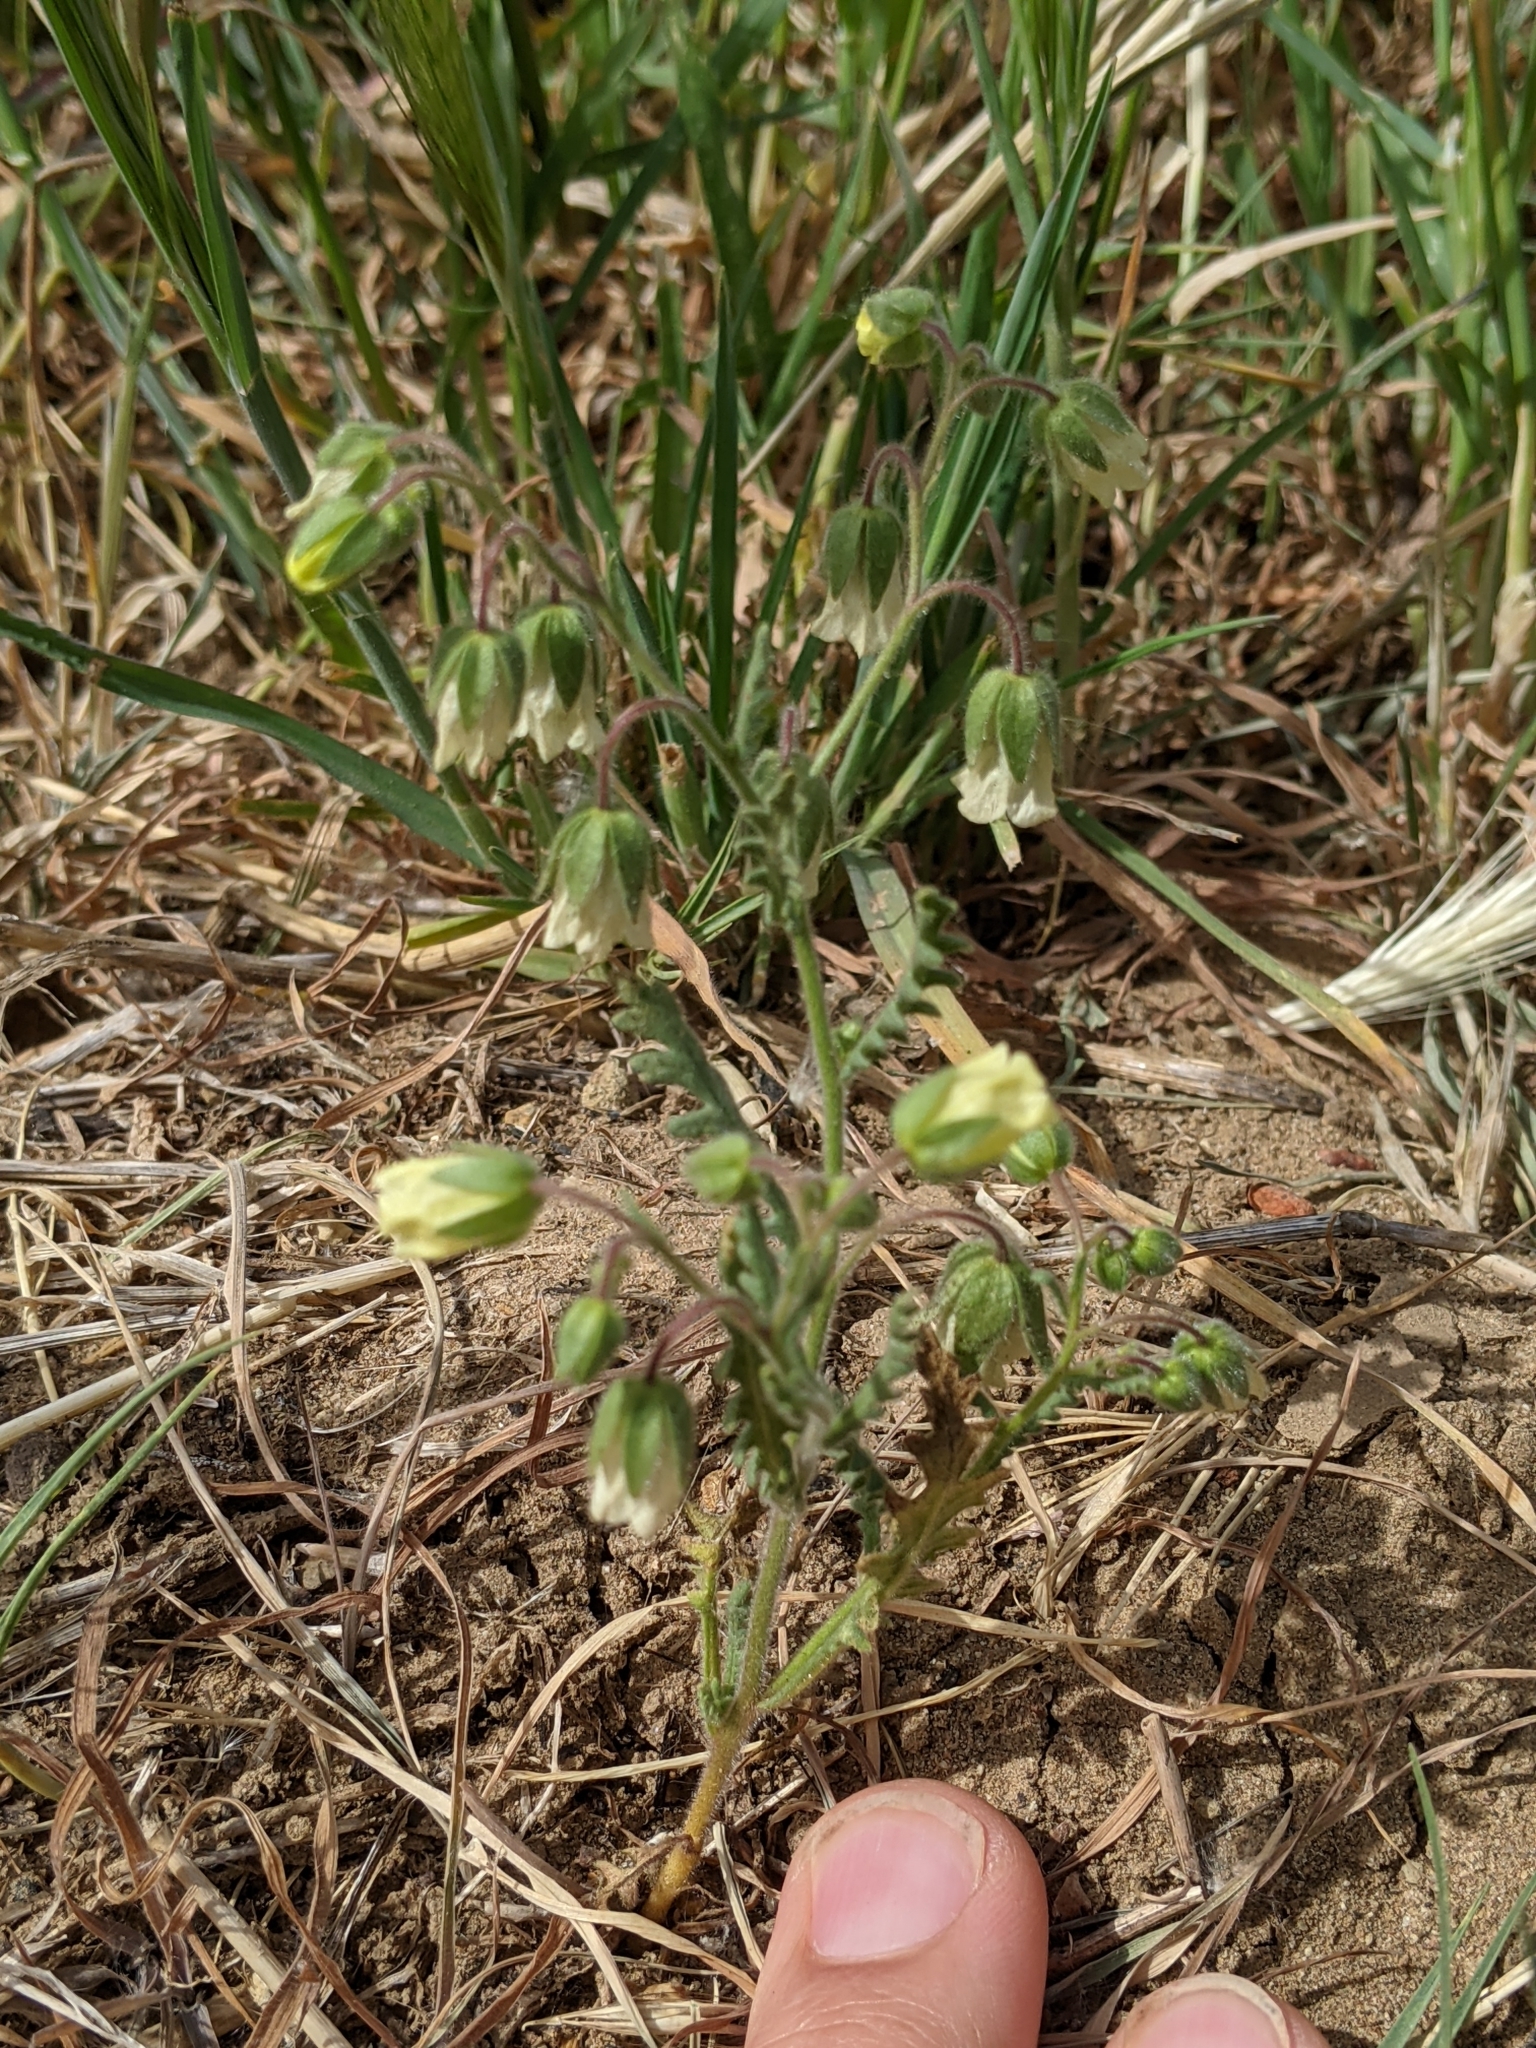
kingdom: Plantae
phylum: Tracheophyta
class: Magnoliopsida
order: Boraginales
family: Hydrophyllaceae
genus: Emmenanthe
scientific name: Emmenanthe penduliflora
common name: Whispering-bells
